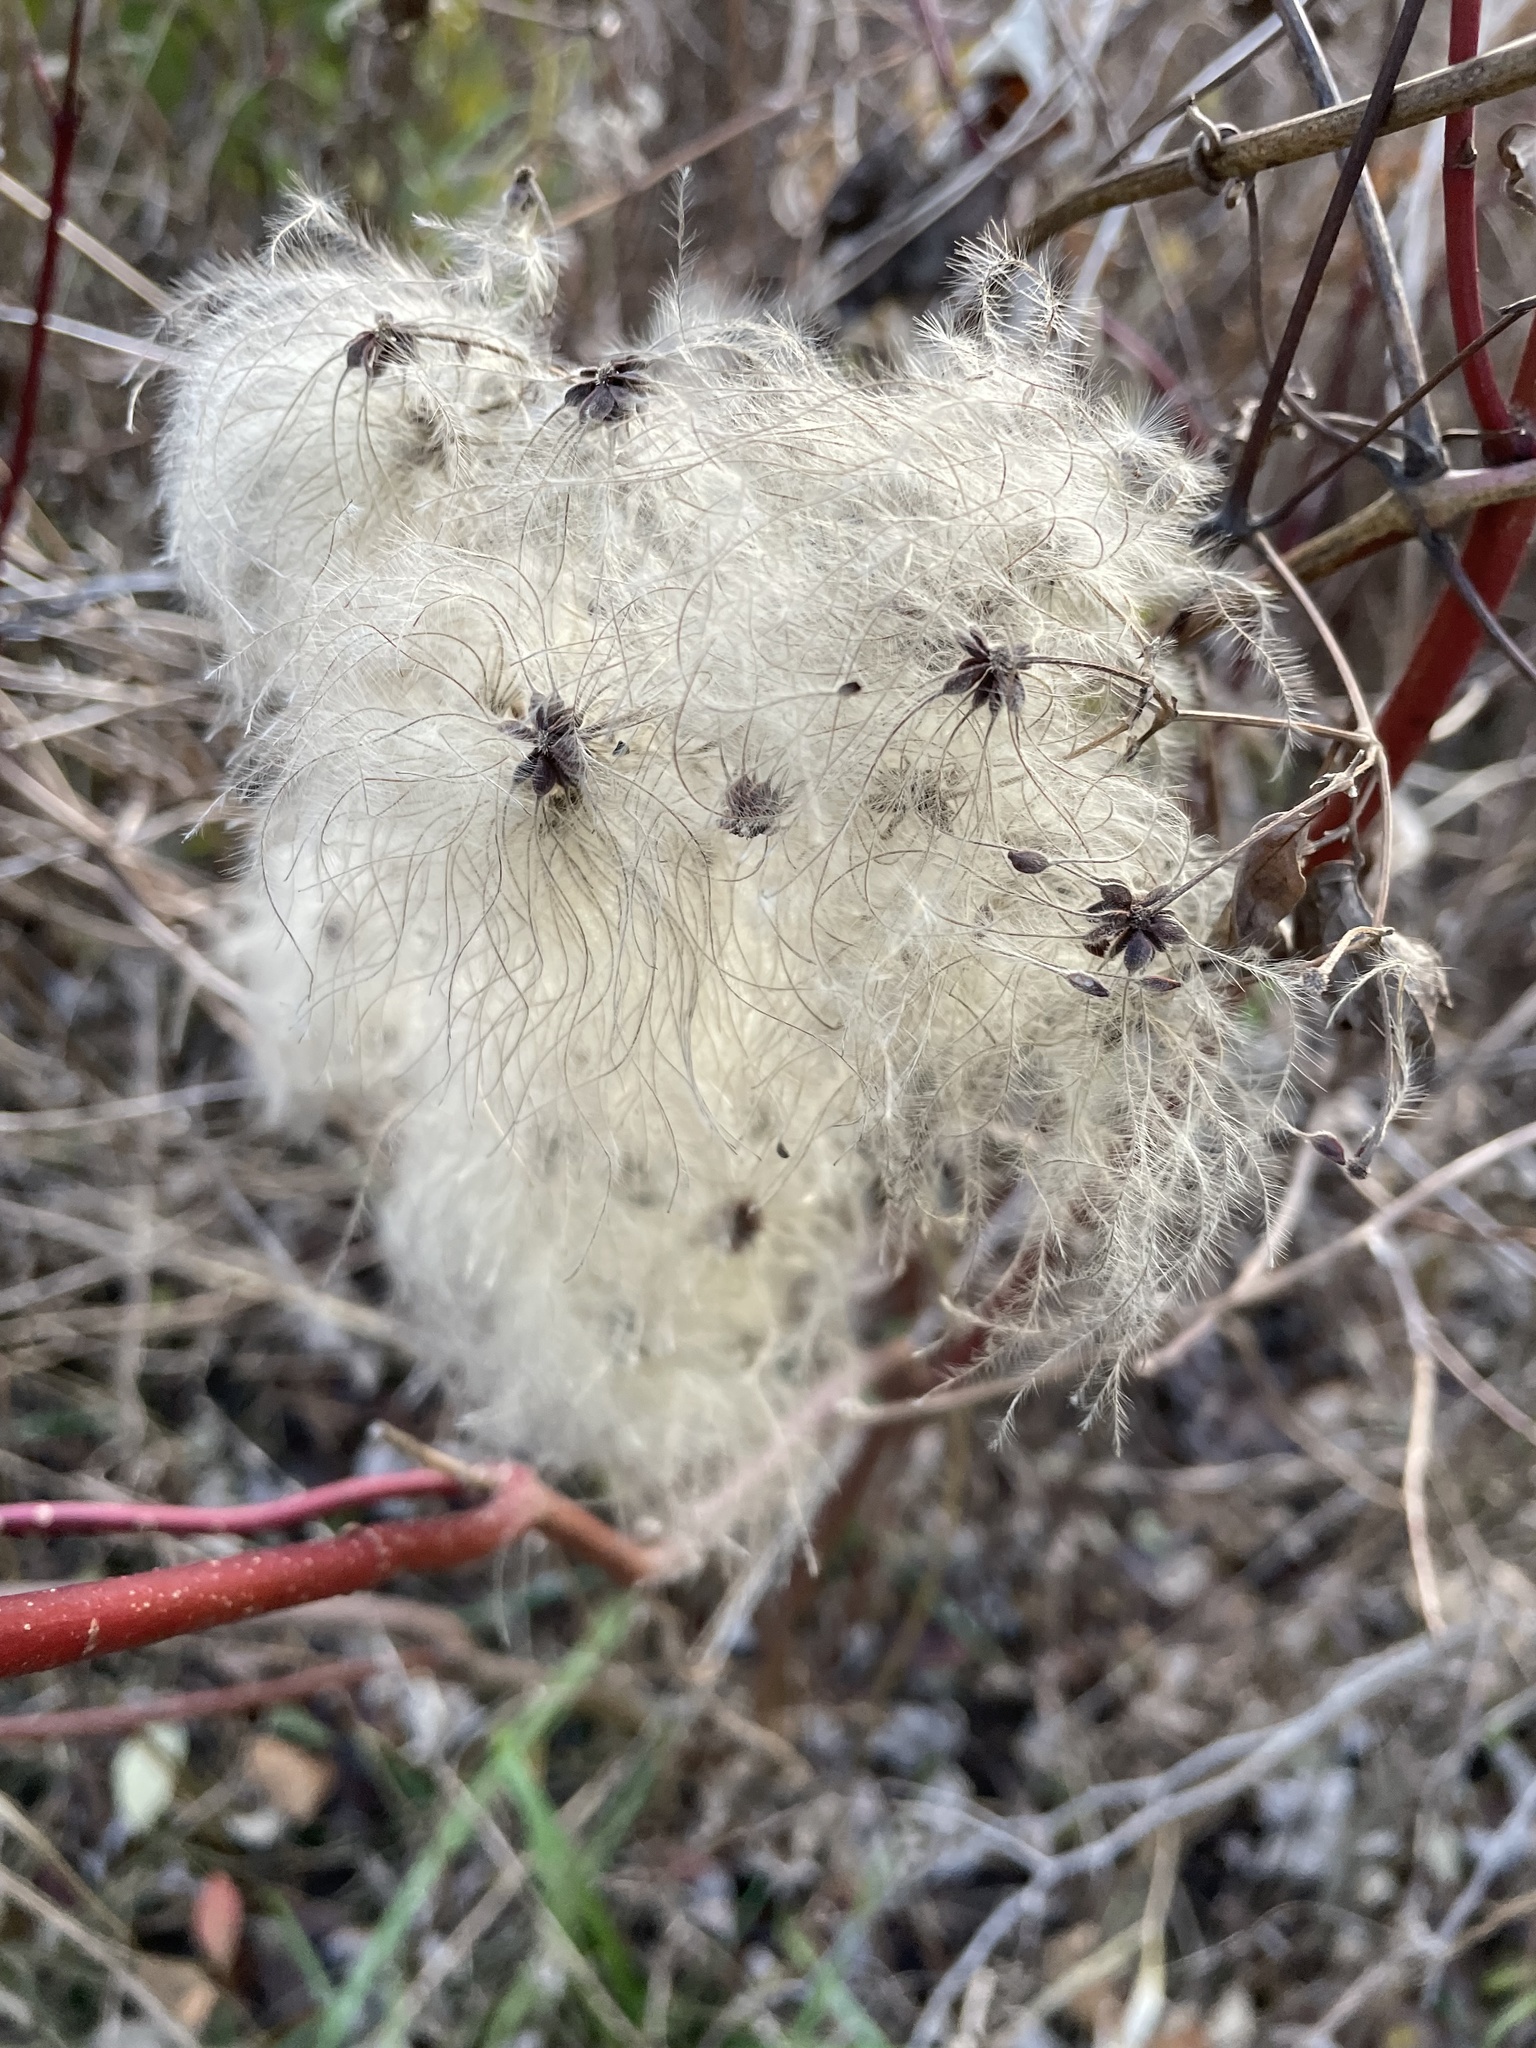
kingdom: Plantae
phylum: Tracheophyta
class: Magnoliopsida
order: Ranunculales
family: Ranunculaceae
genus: Clematis
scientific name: Clematis virginiana
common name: Virgin's-bower
